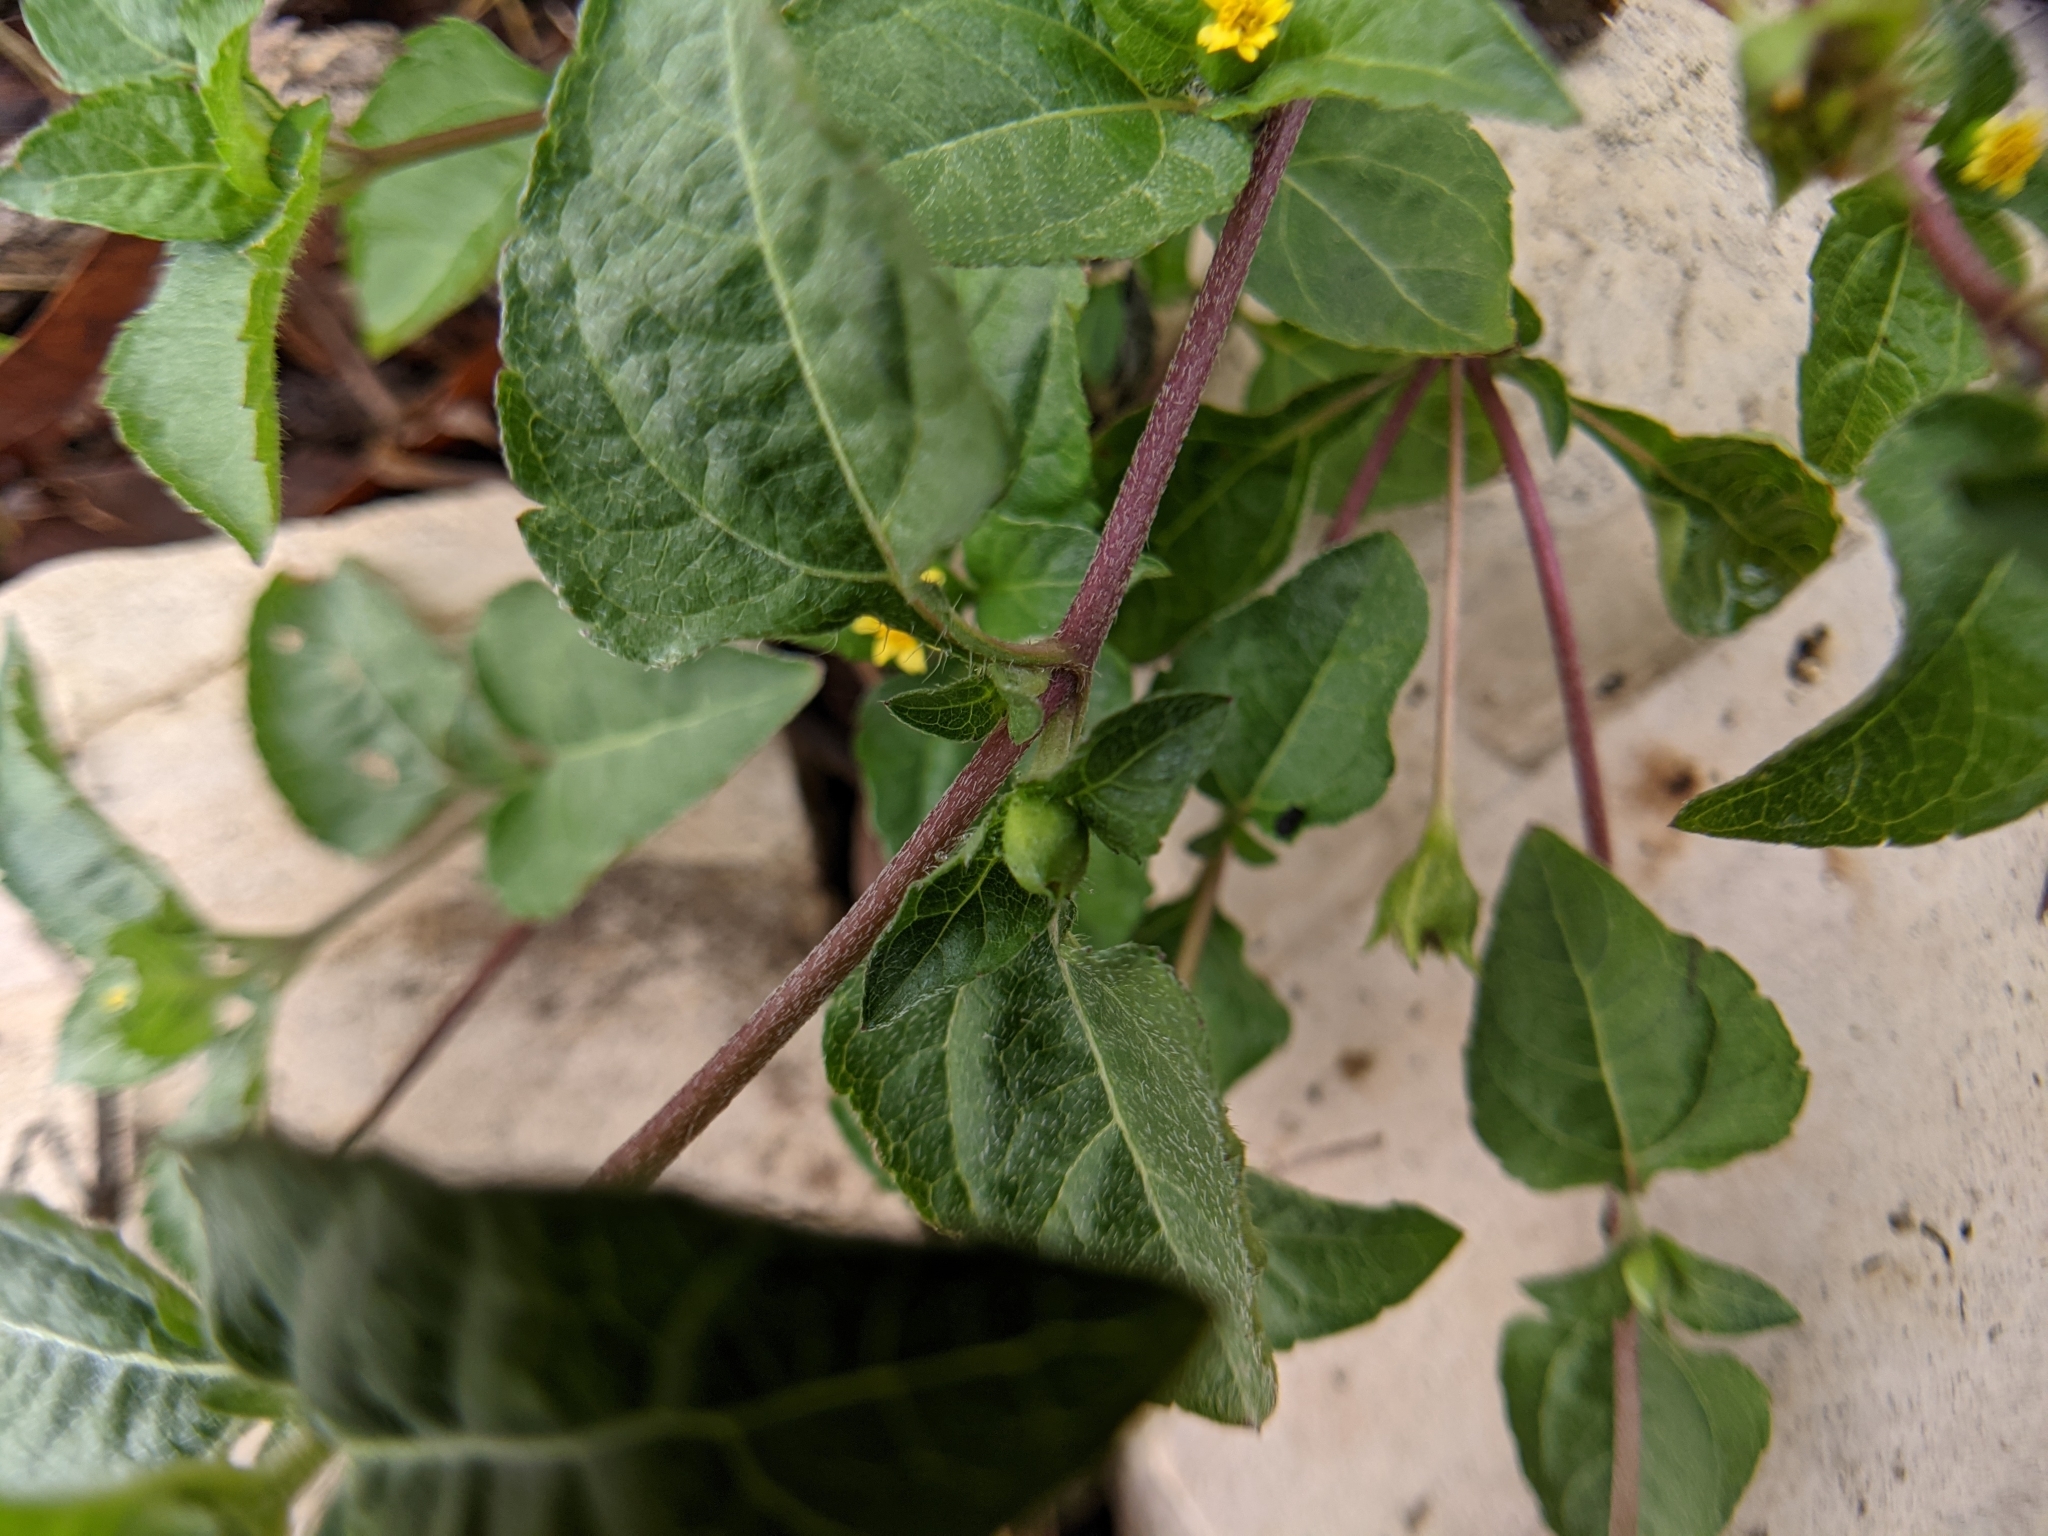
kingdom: Plantae
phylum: Tracheophyta
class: Magnoliopsida
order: Asterales
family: Asteraceae
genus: Calyptocarpus
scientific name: Calyptocarpus vialis
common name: Straggler daisy
